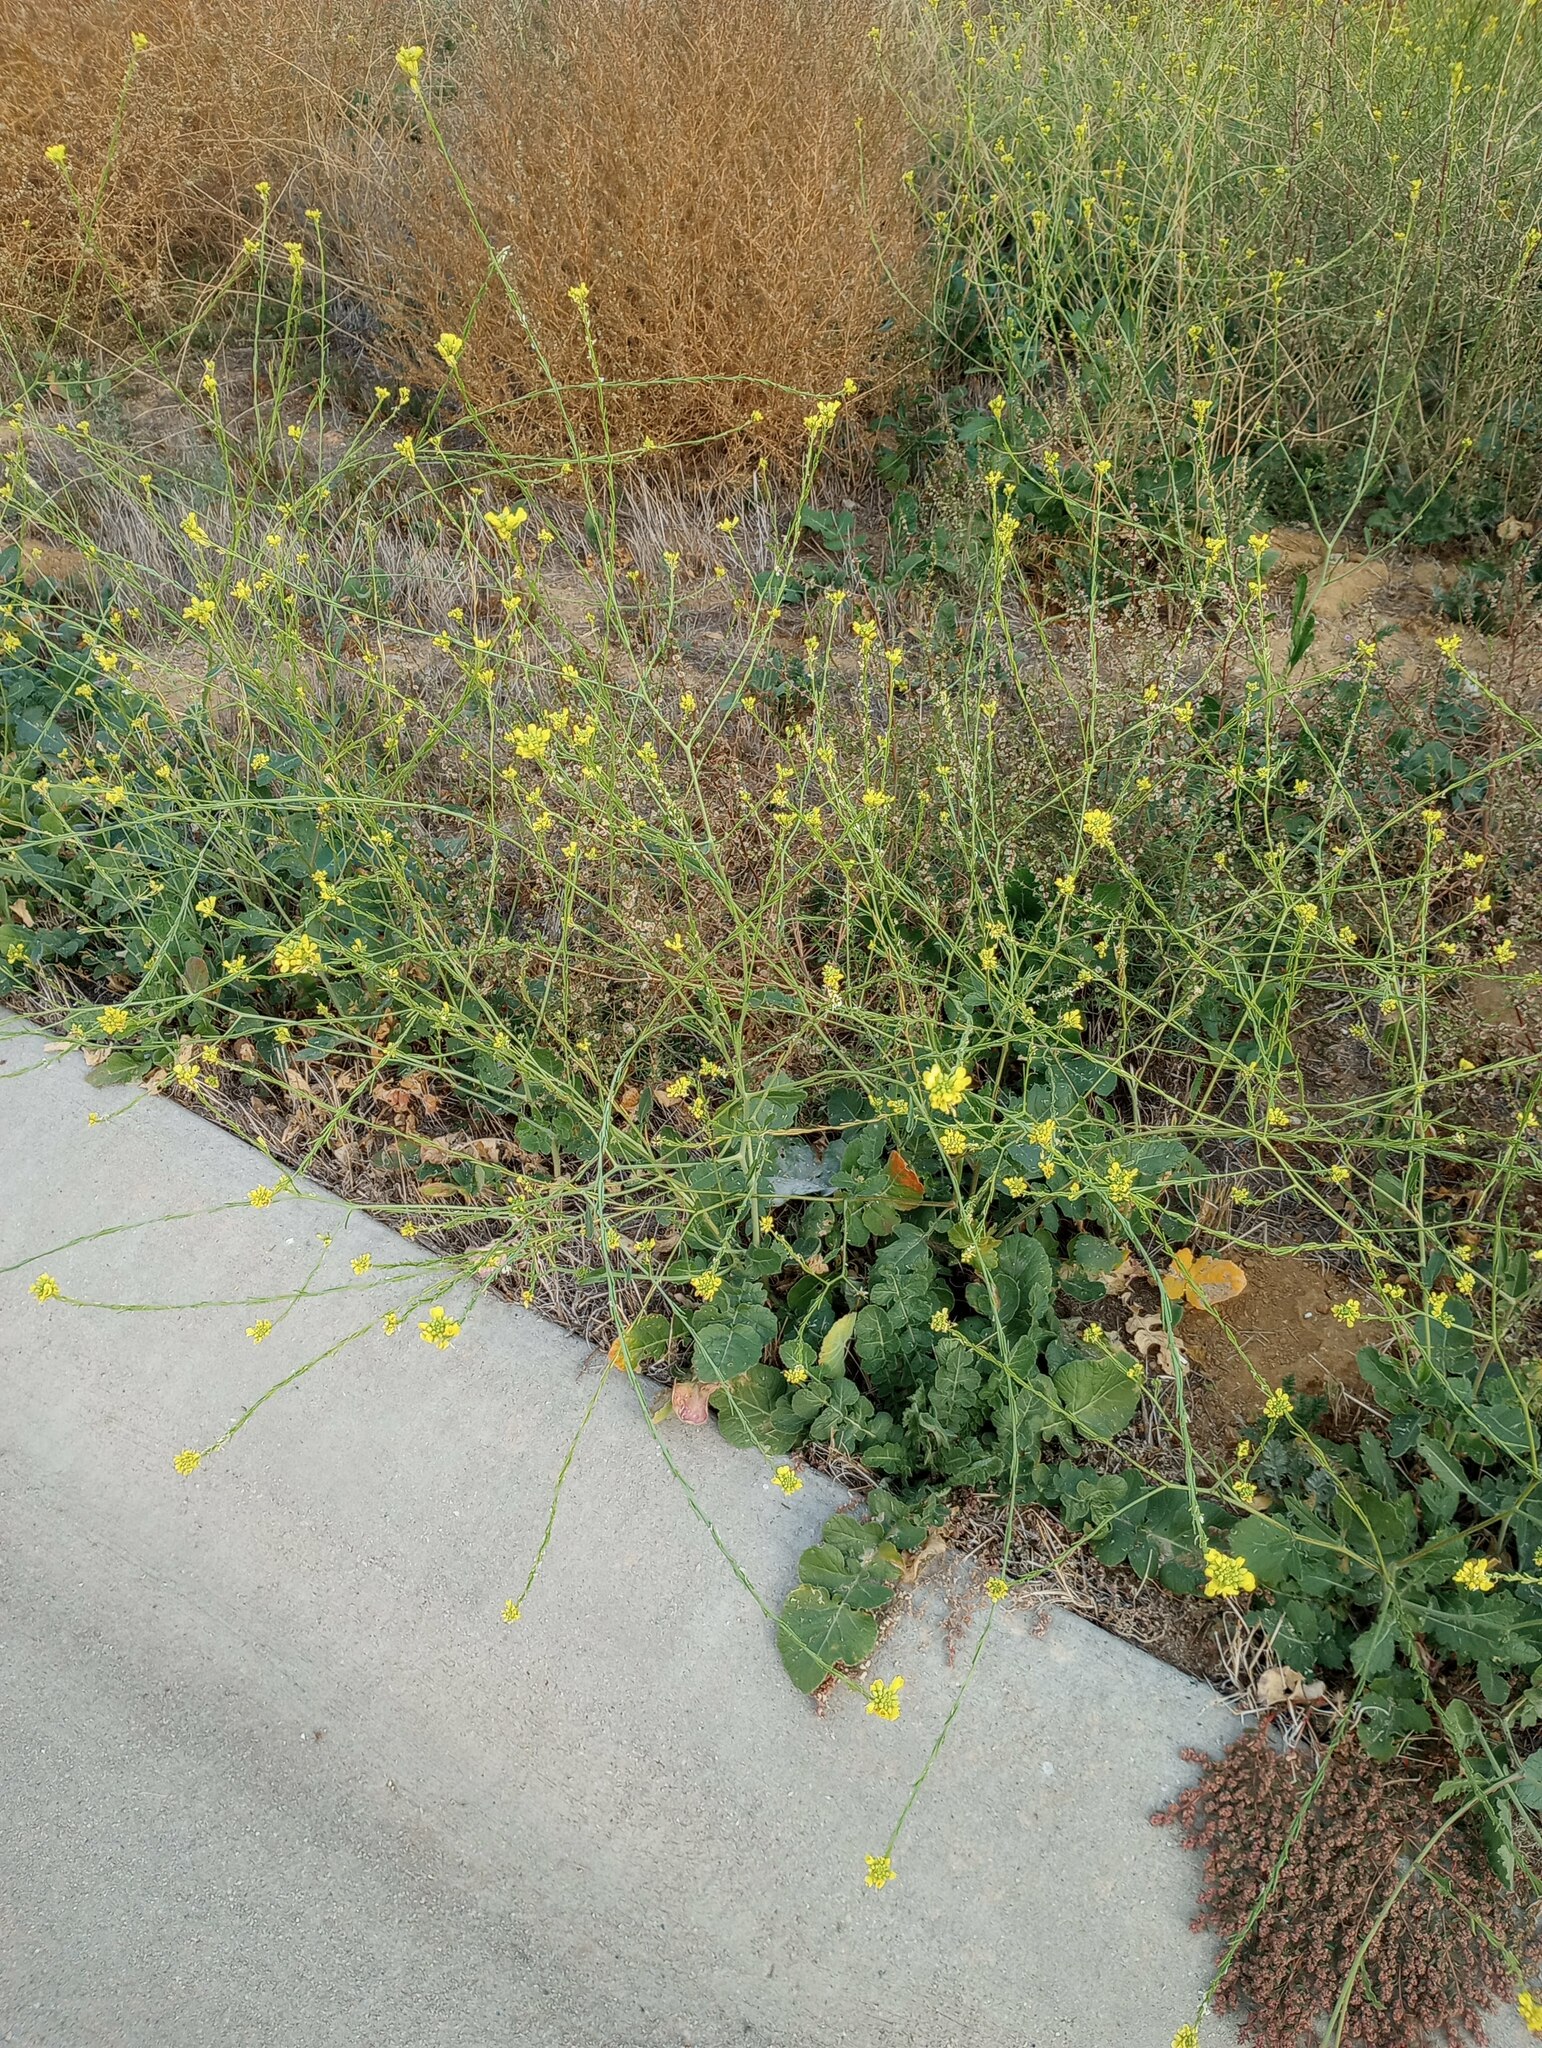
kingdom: Plantae
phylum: Tracheophyta
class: Magnoliopsida
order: Brassicales
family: Brassicaceae
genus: Hirschfeldia
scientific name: Hirschfeldia incana
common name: Hoary mustard
